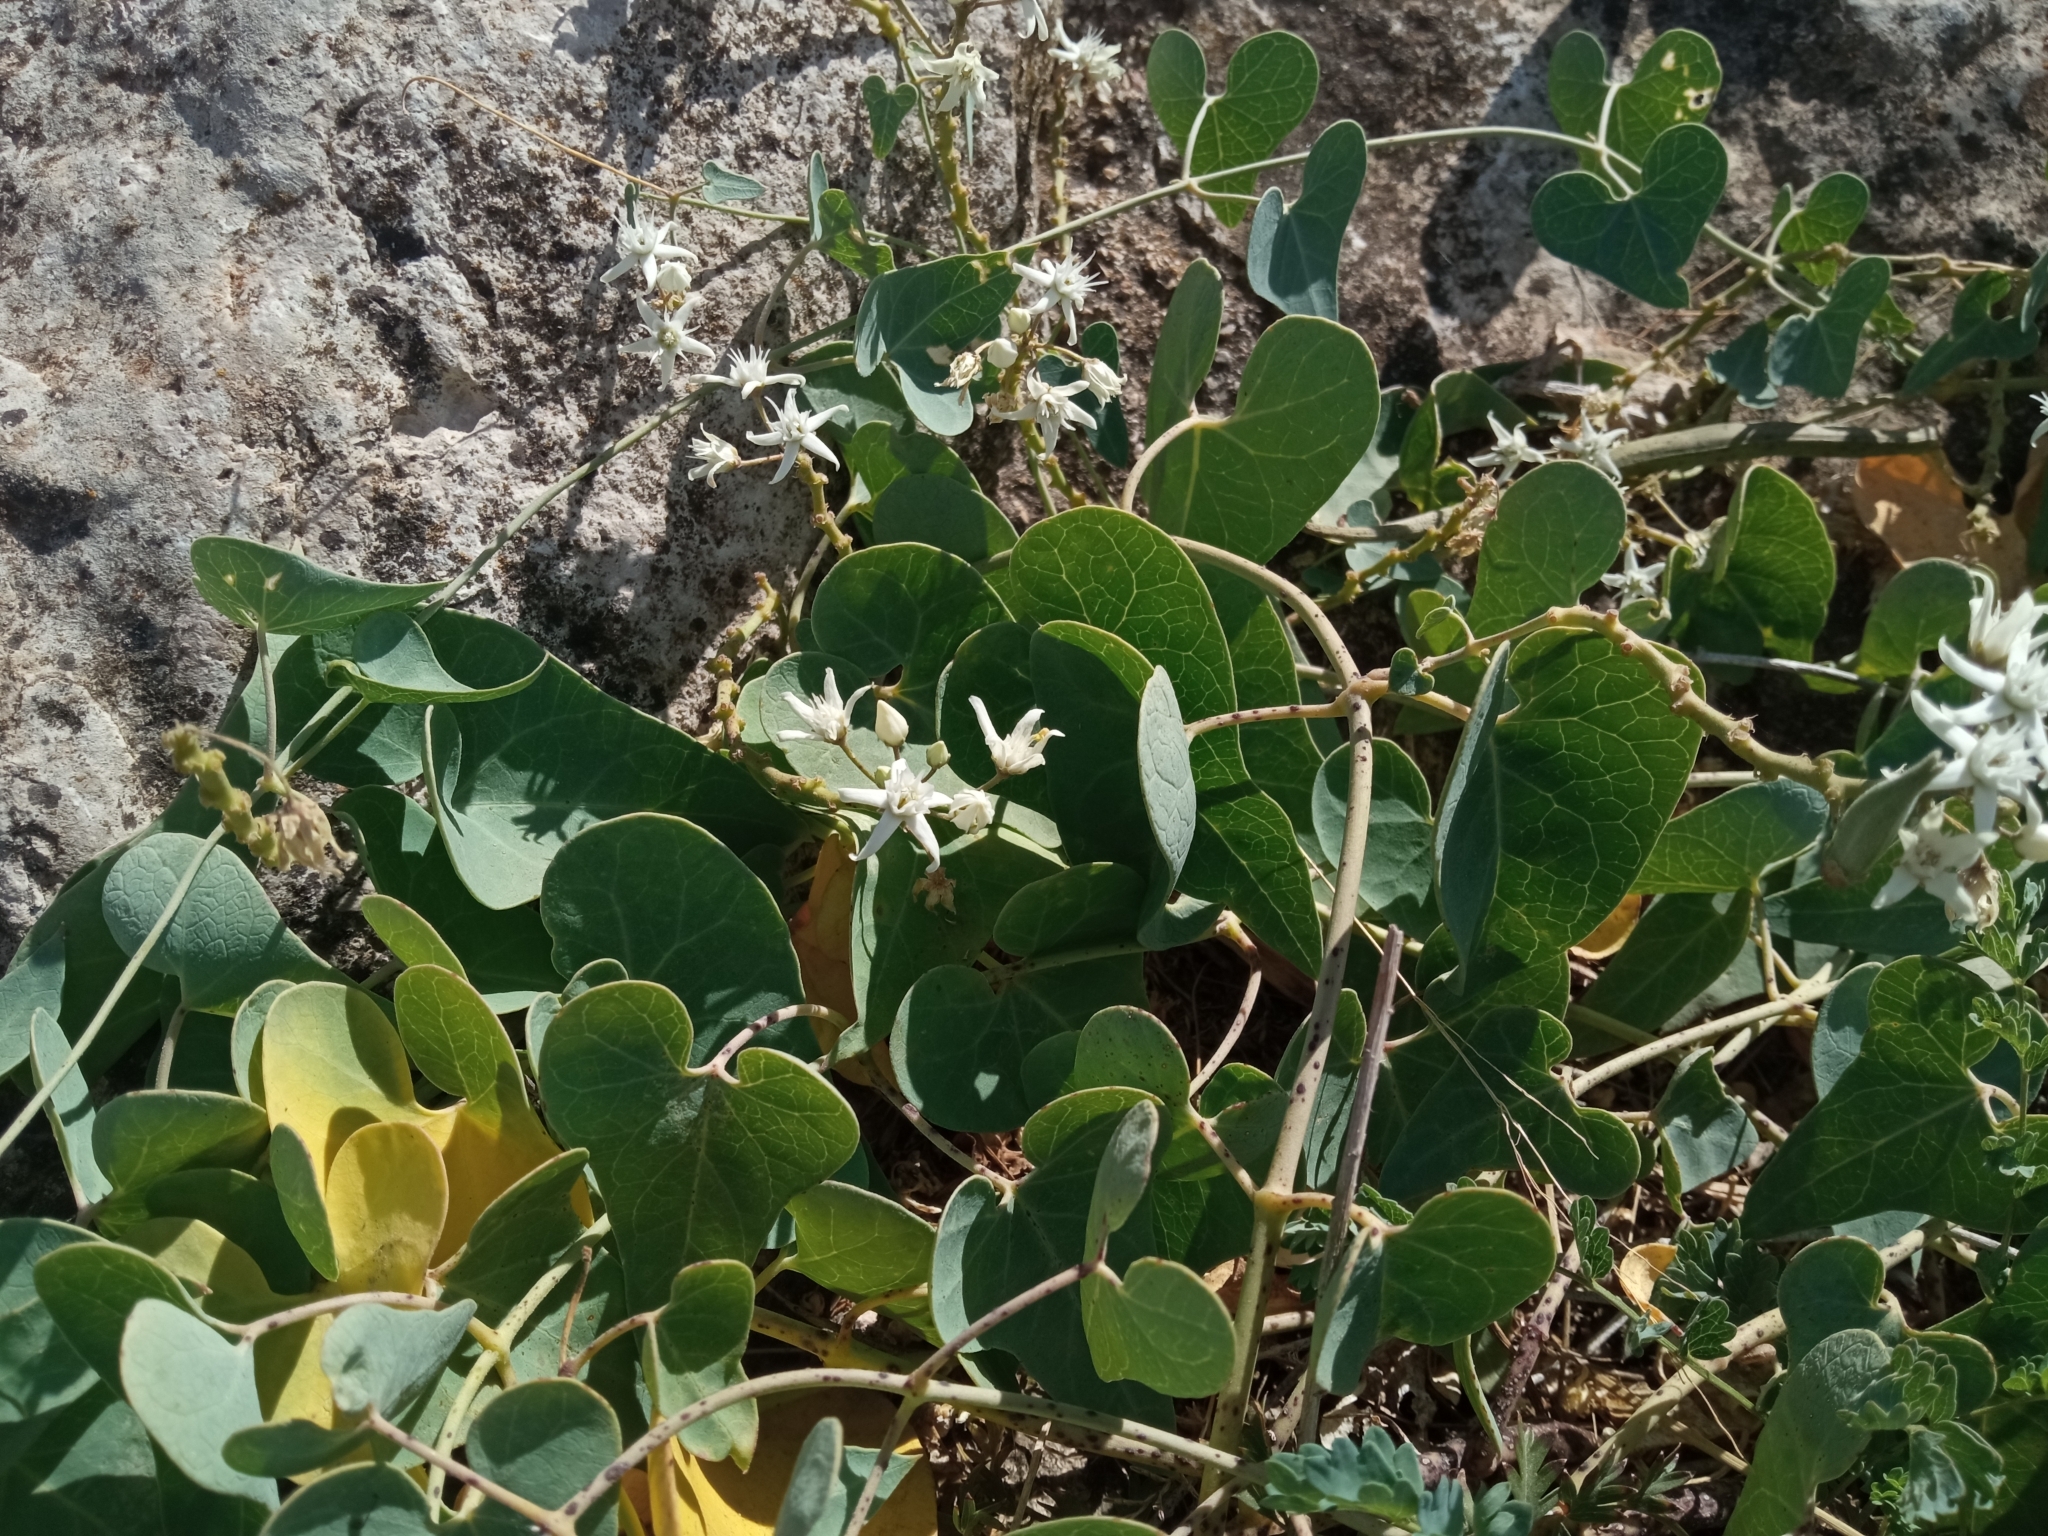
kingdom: Plantae
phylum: Tracheophyta
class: Magnoliopsida
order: Gentianales
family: Apocynaceae
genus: Cynanchum
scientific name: Cynanchum acutum
